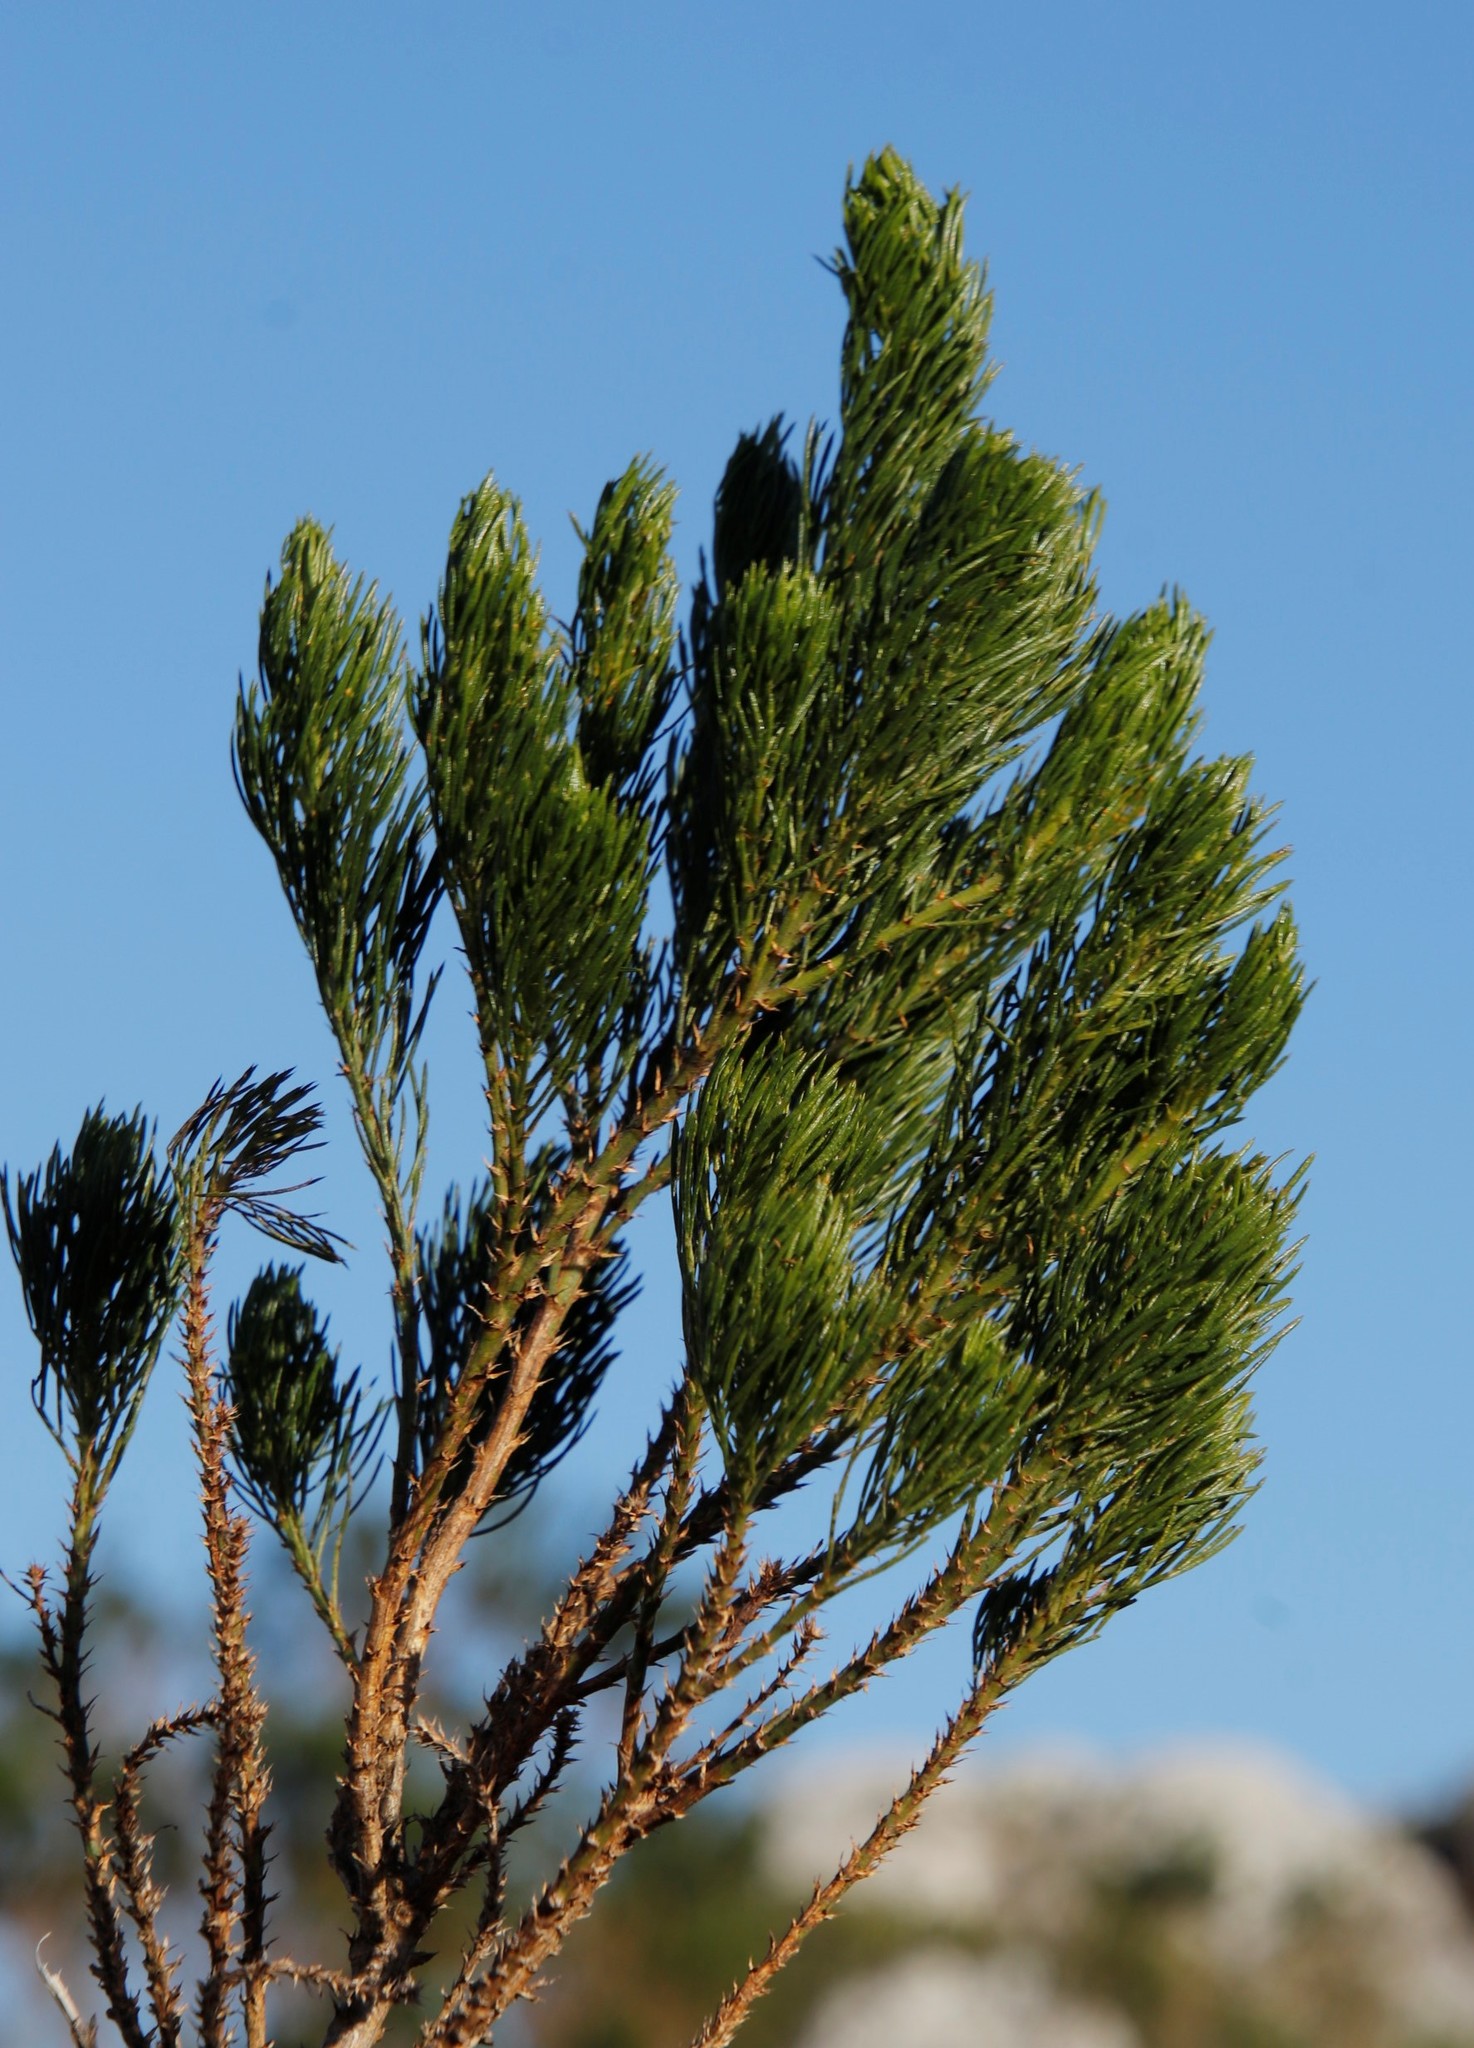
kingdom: Plantae
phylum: Tracheophyta
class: Magnoliopsida
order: Fabales
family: Fabaceae
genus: Psoralea
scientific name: Psoralea pinnata
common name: African scurfpea
